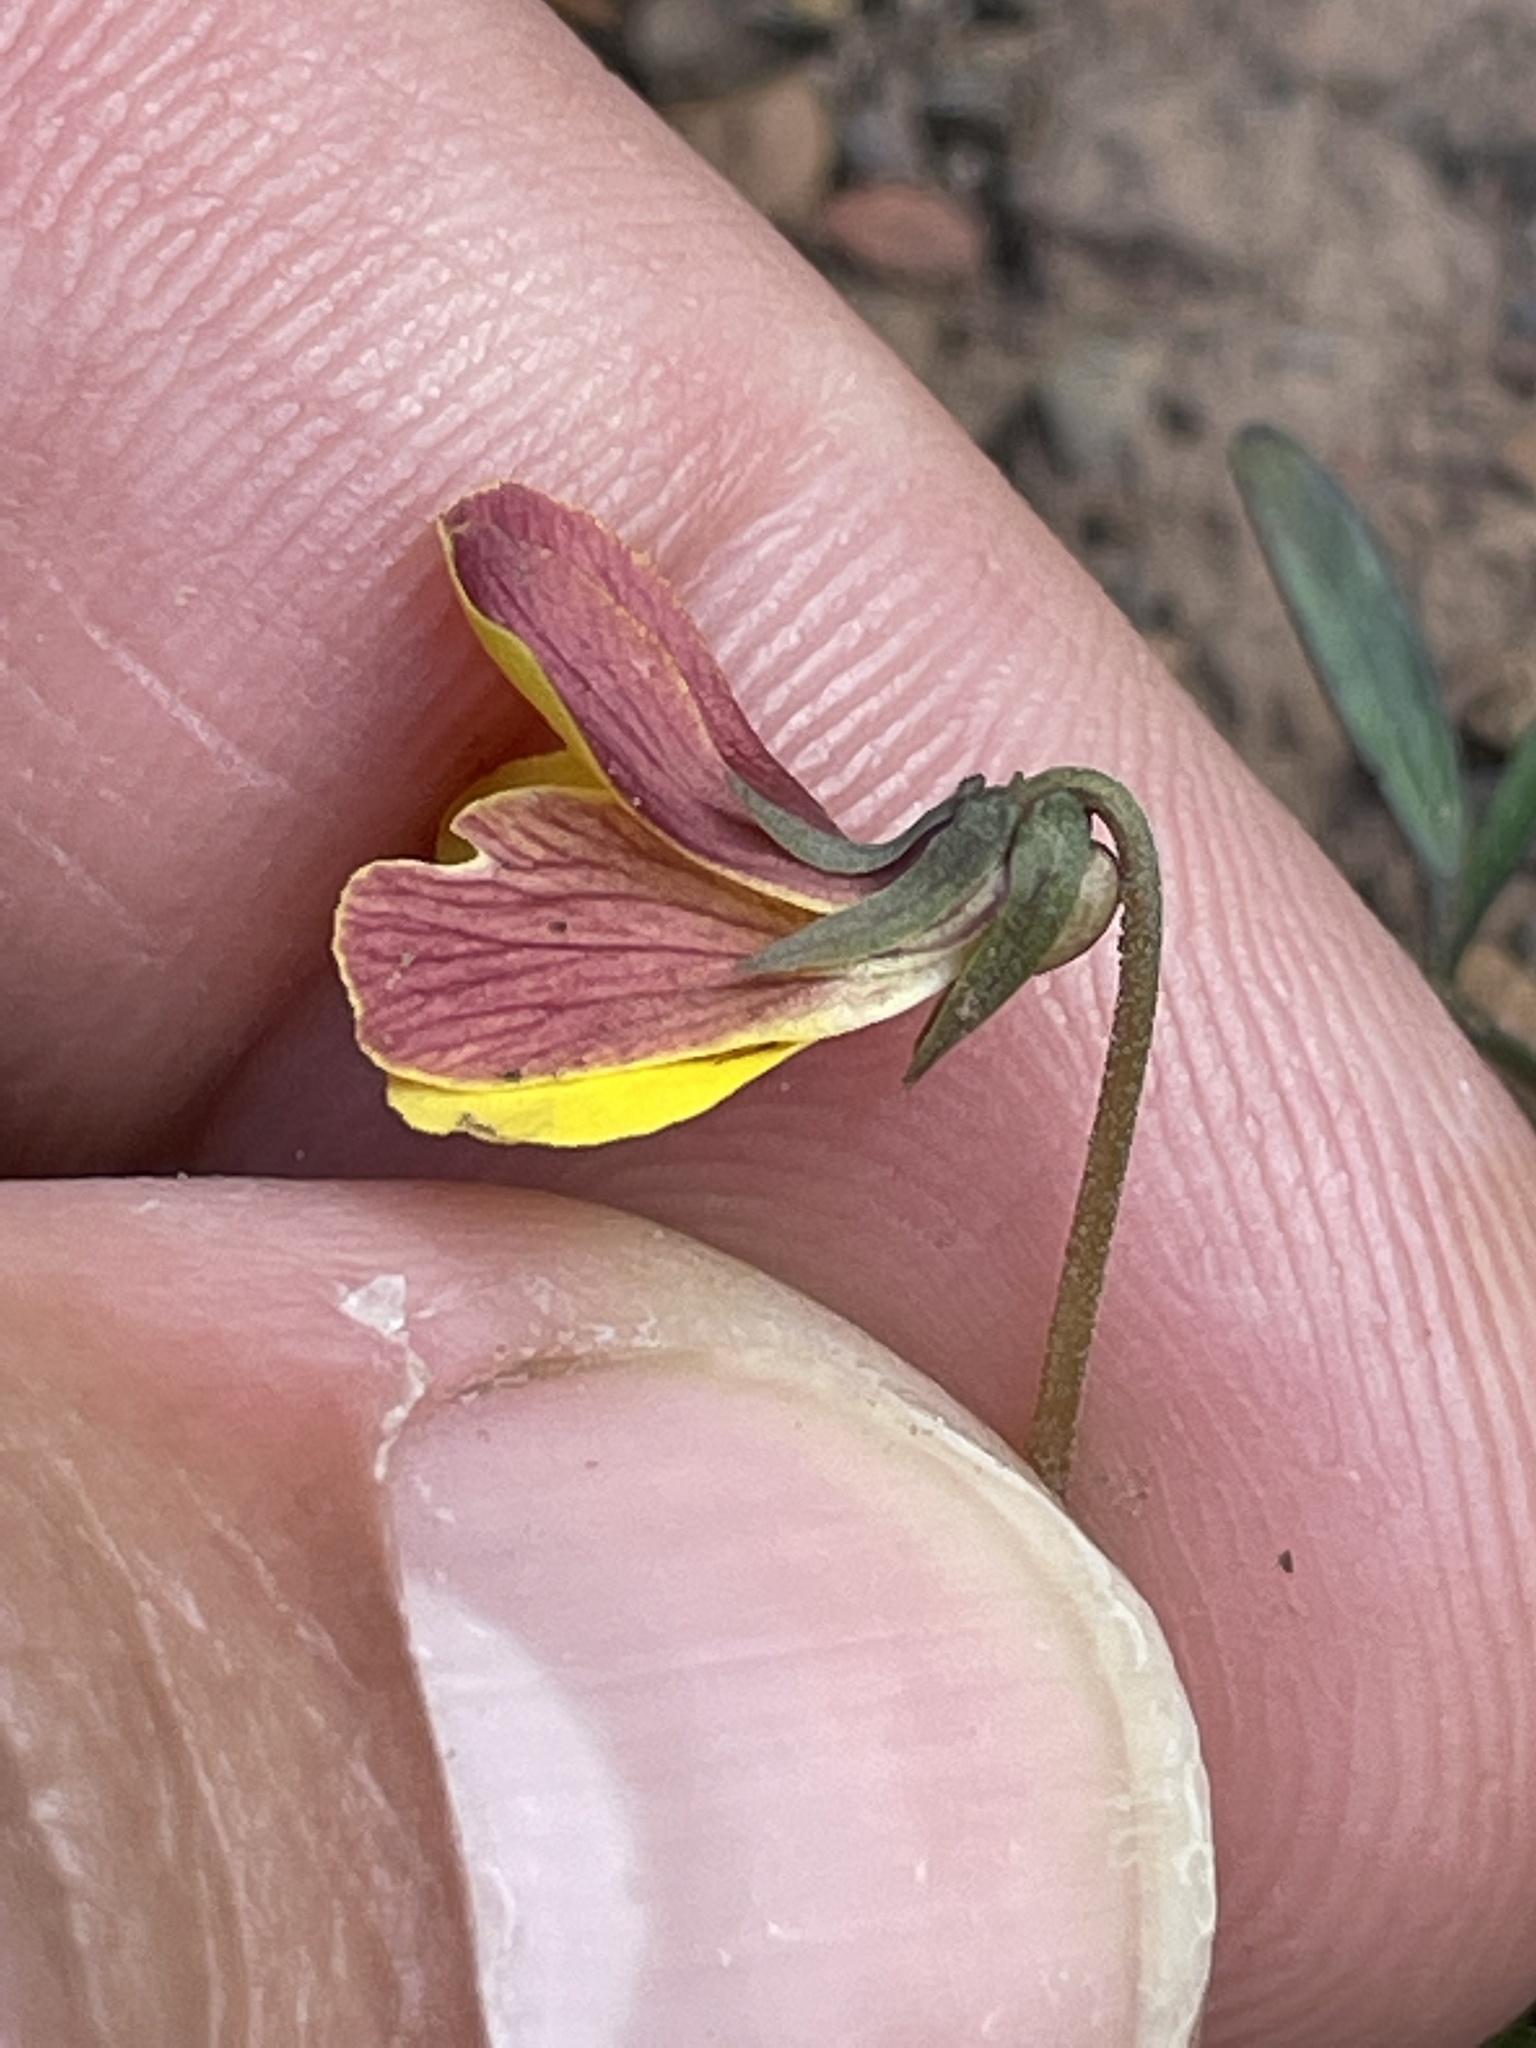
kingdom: Plantae
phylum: Tracheophyta
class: Magnoliopsida
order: Malpighiales
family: Violaceae
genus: Viola
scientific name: Viola purpurea
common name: Pine violet
